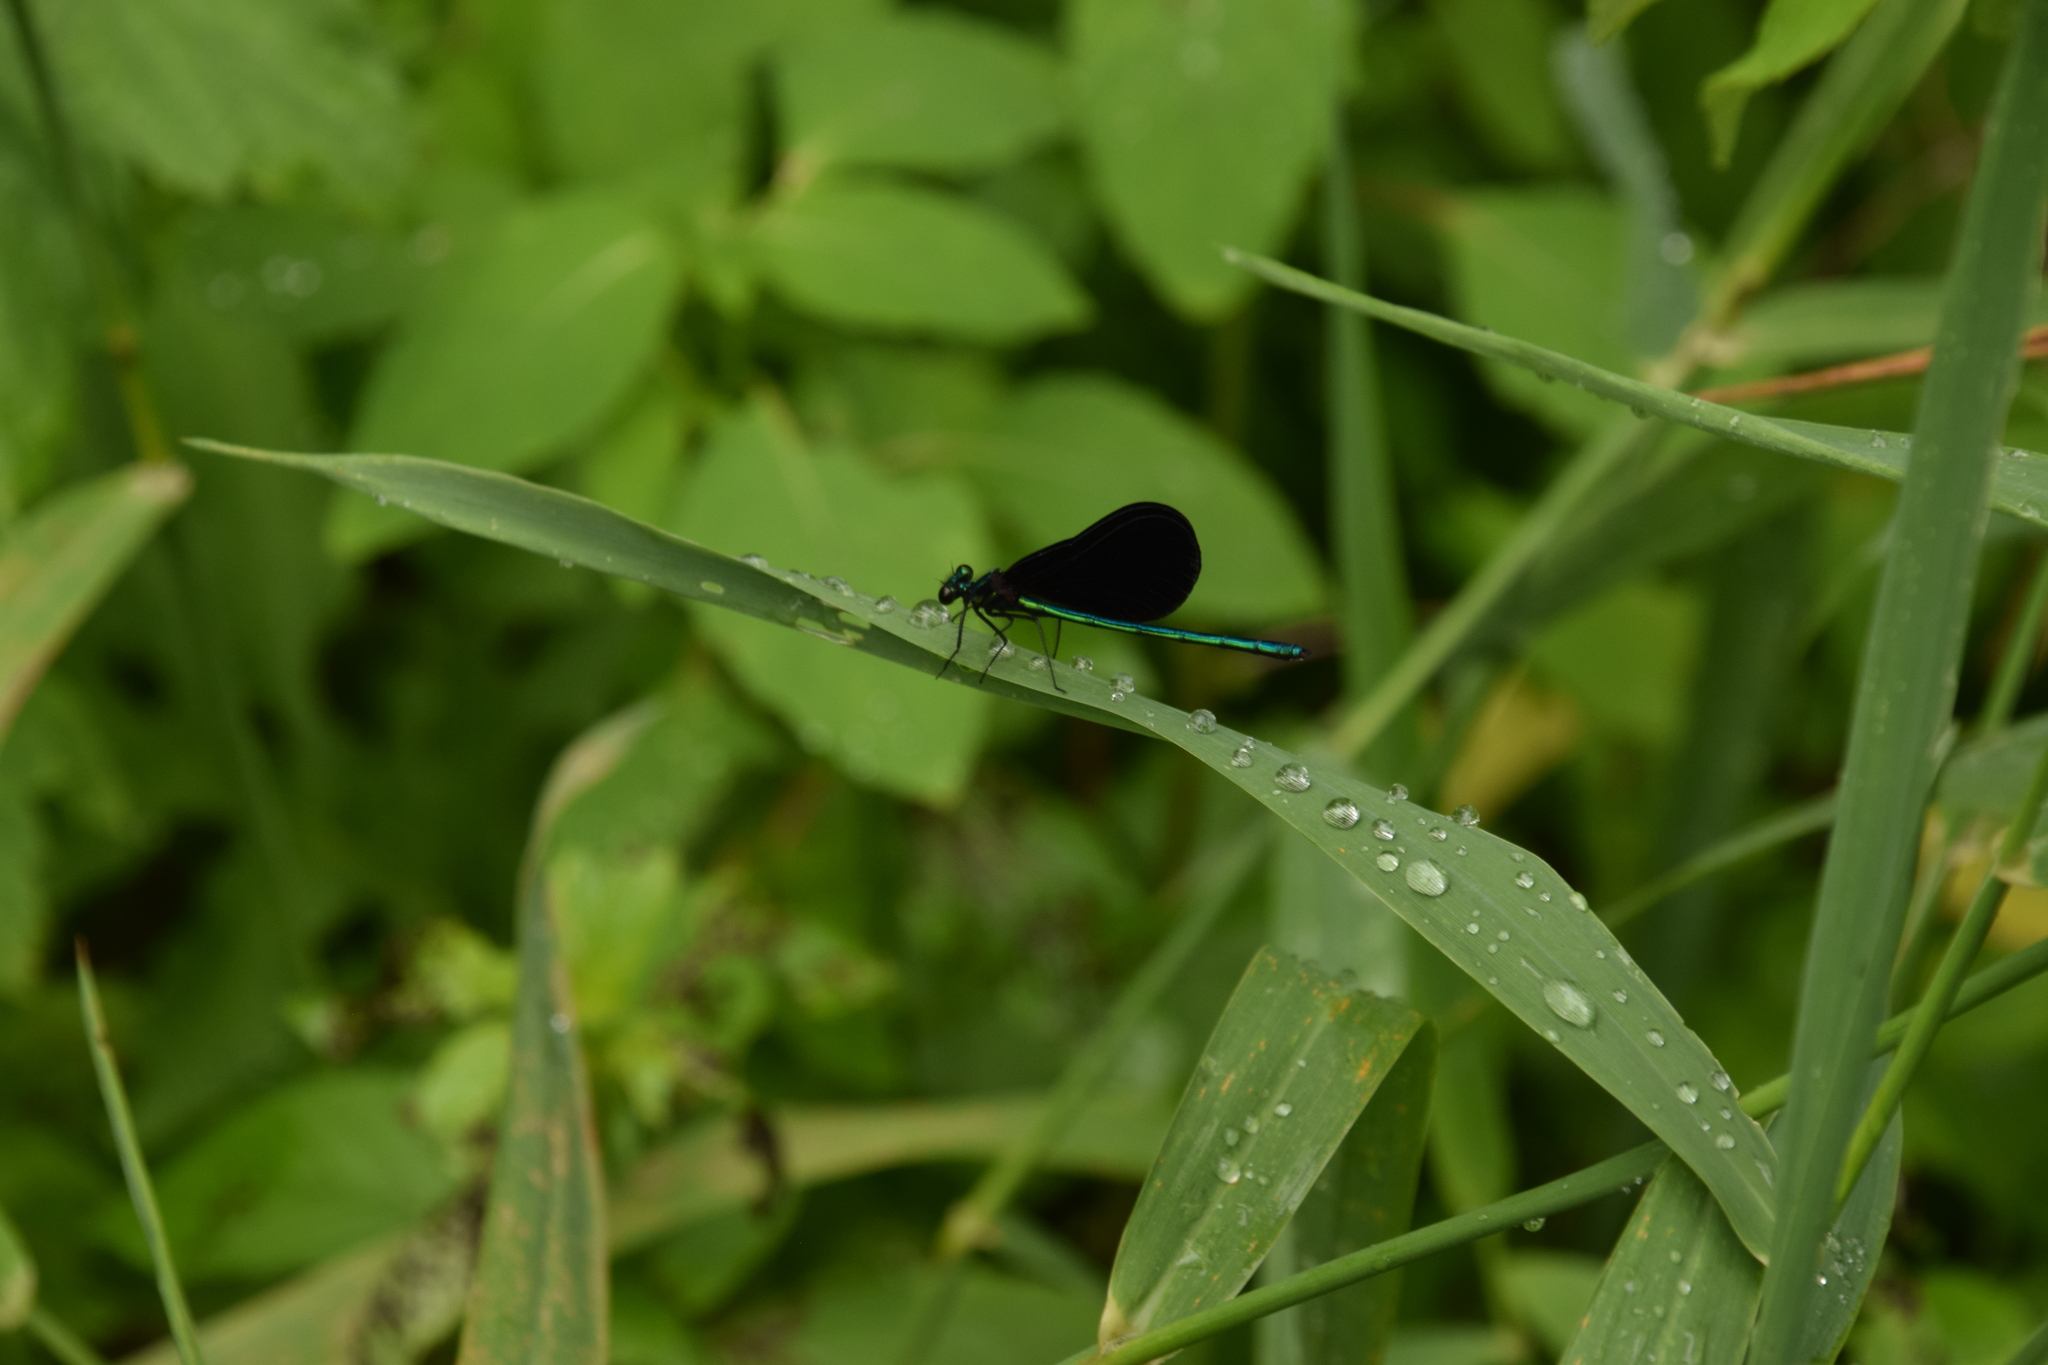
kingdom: Animalia
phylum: Arthropoda
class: Insecta
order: Odonata
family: Calopterygidae
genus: Calopteryx
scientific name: Calopteryx maculata
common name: Ebony jewelwing
